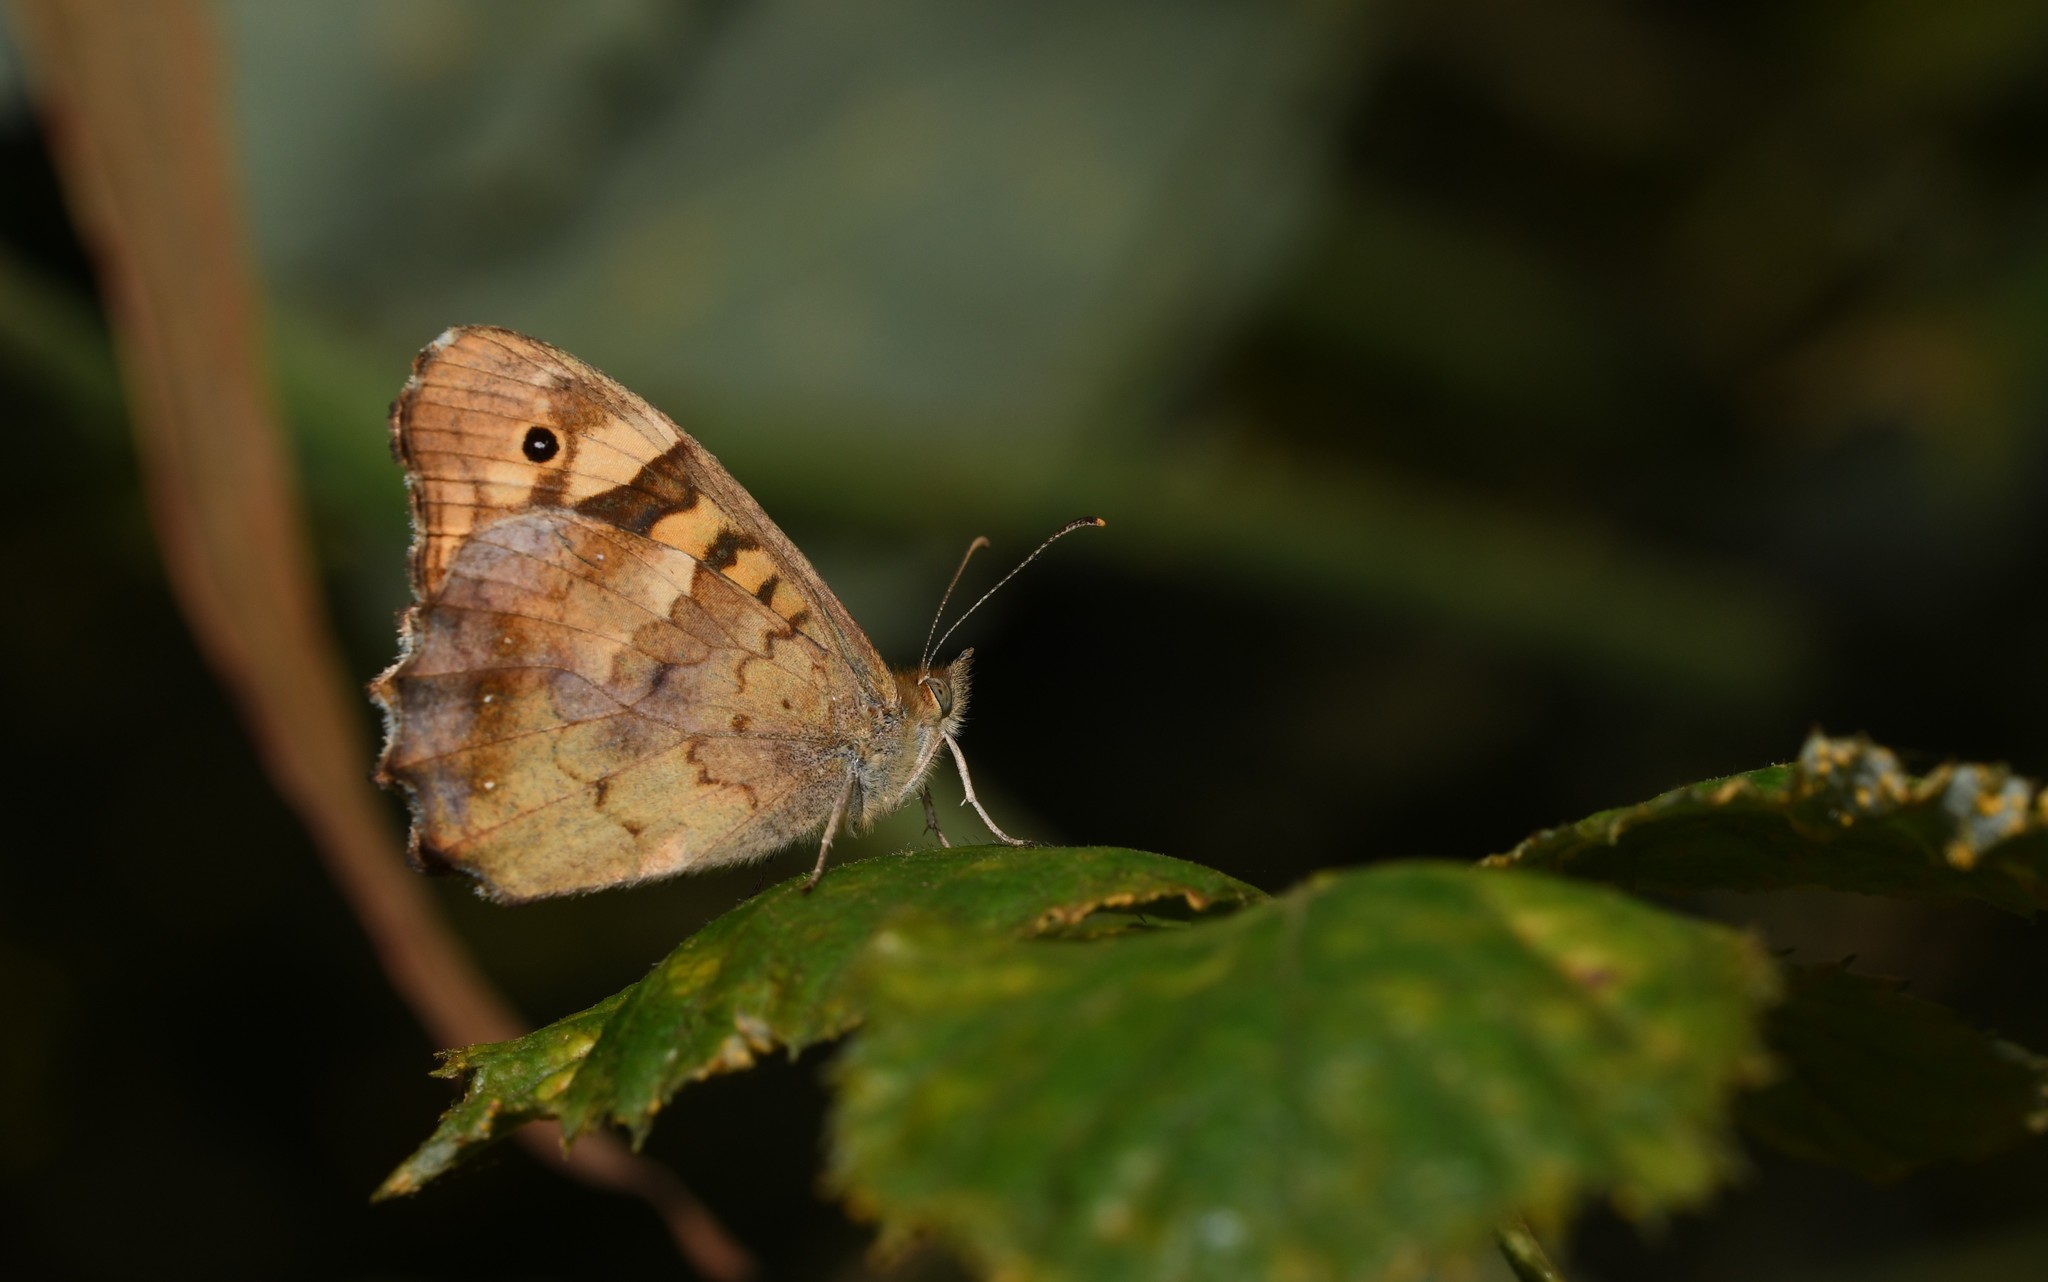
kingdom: Animalia
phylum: Arthropoda
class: Insecta
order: Lepidoptera
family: Nymphalidae
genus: Pararge
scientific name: Pararge aegeria
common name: Speckled wood
